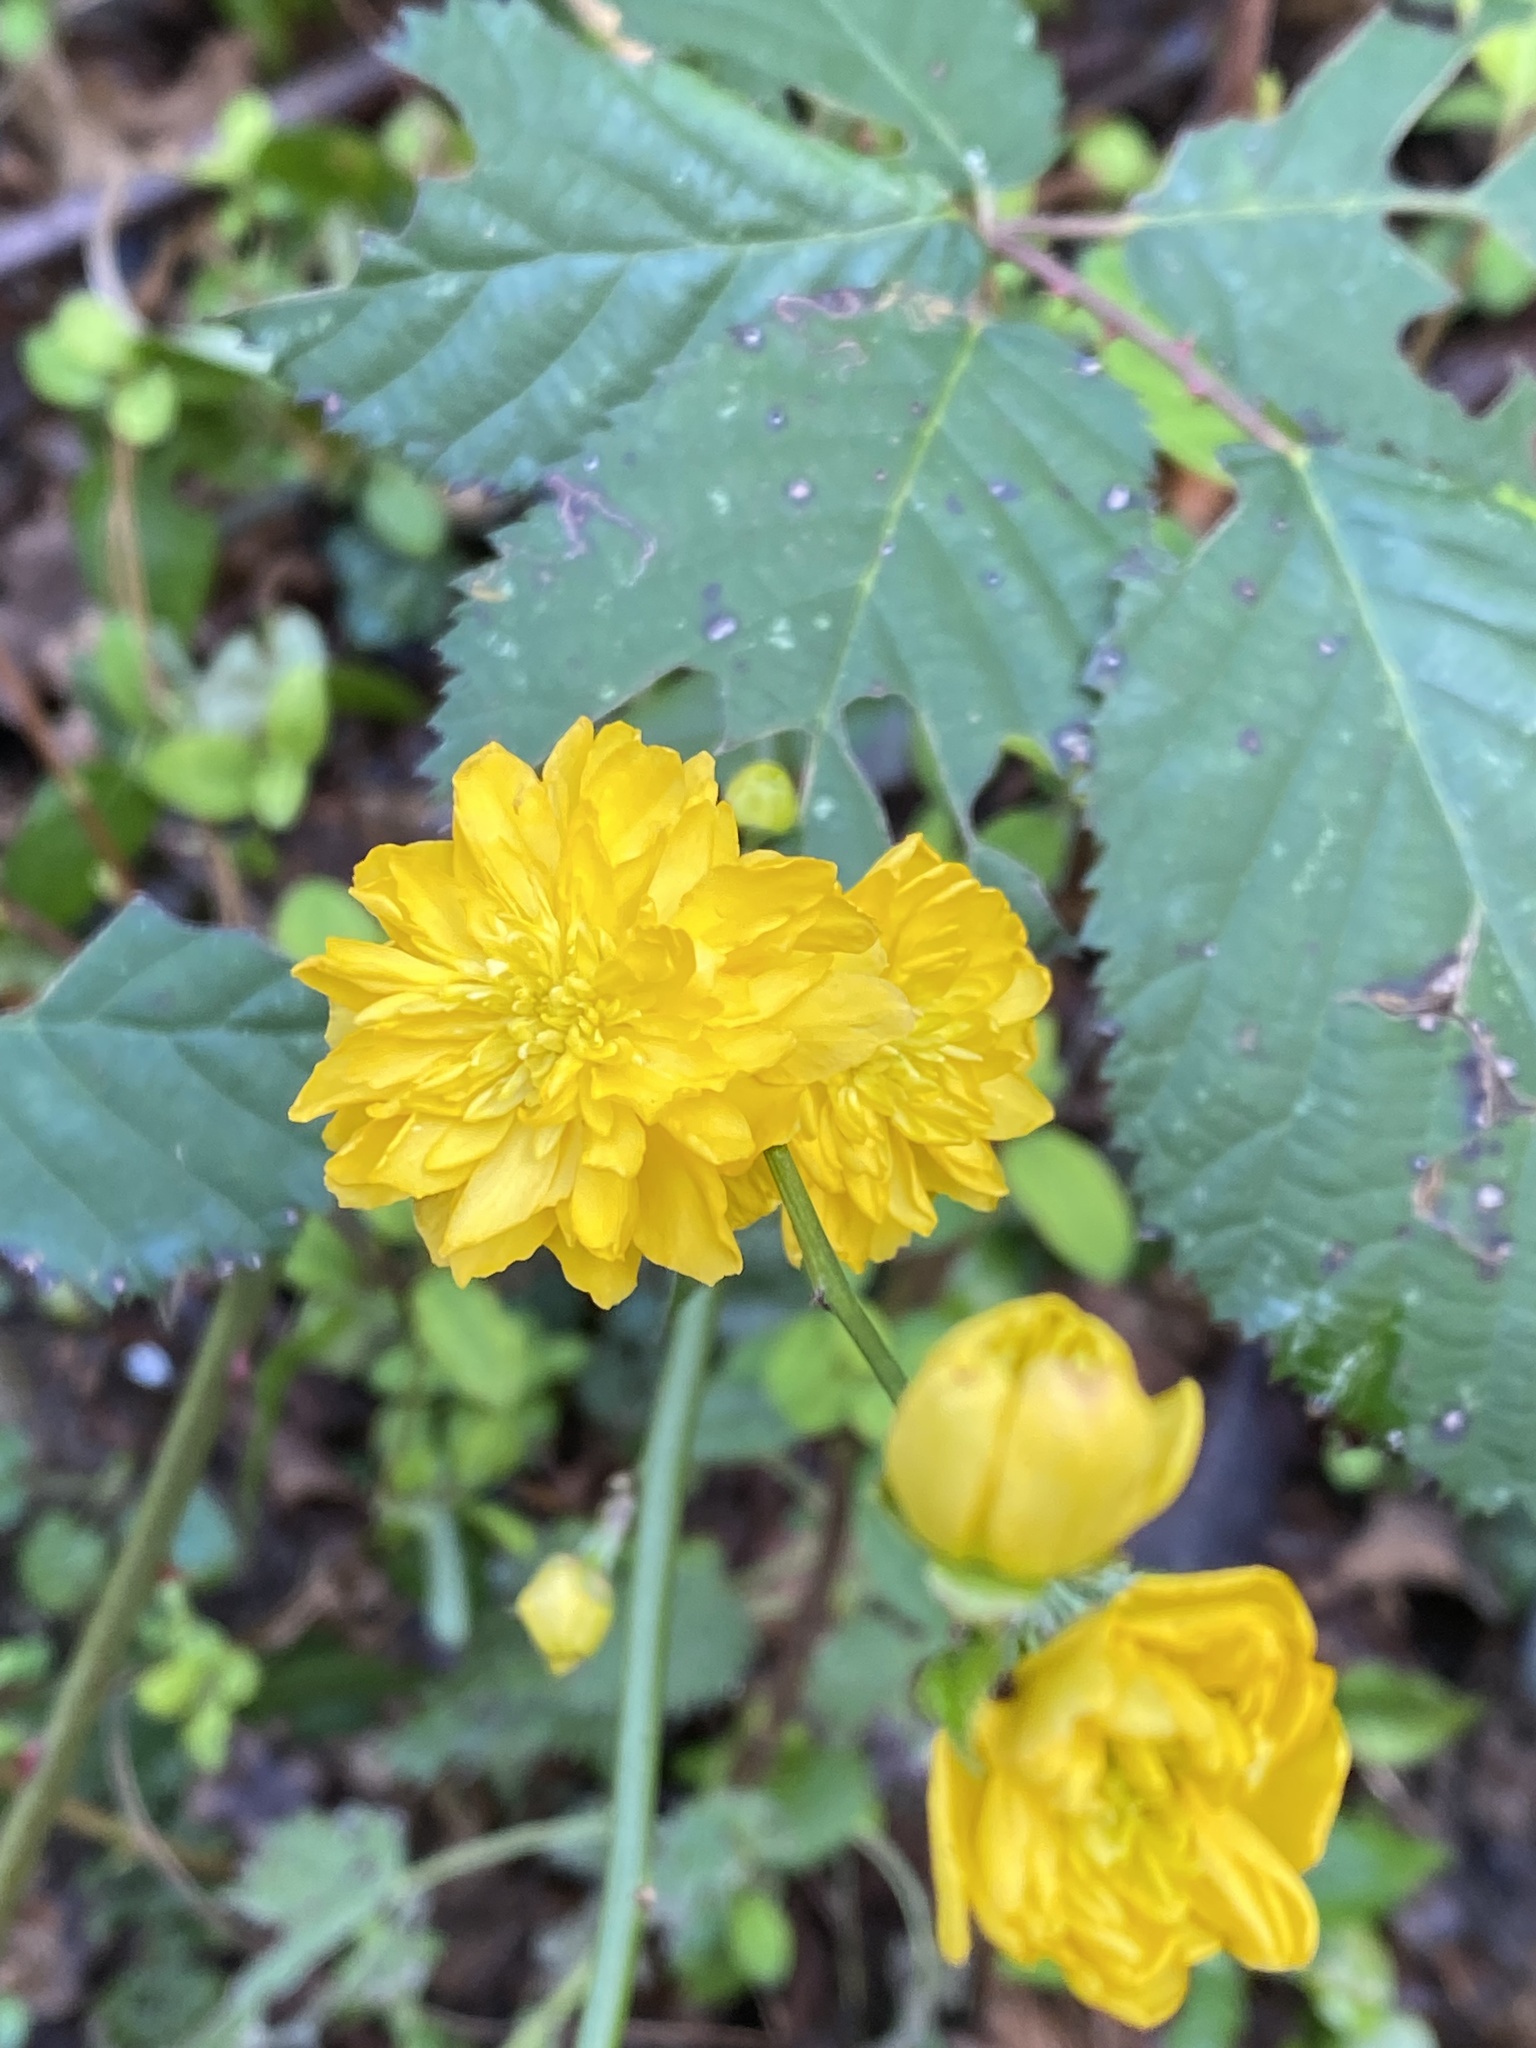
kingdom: Plantae
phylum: Tracheophyta
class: Magnoliopsida
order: Rosales
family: Rosaceae
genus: Kerria
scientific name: Kerria japonica
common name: Japanese kerria
